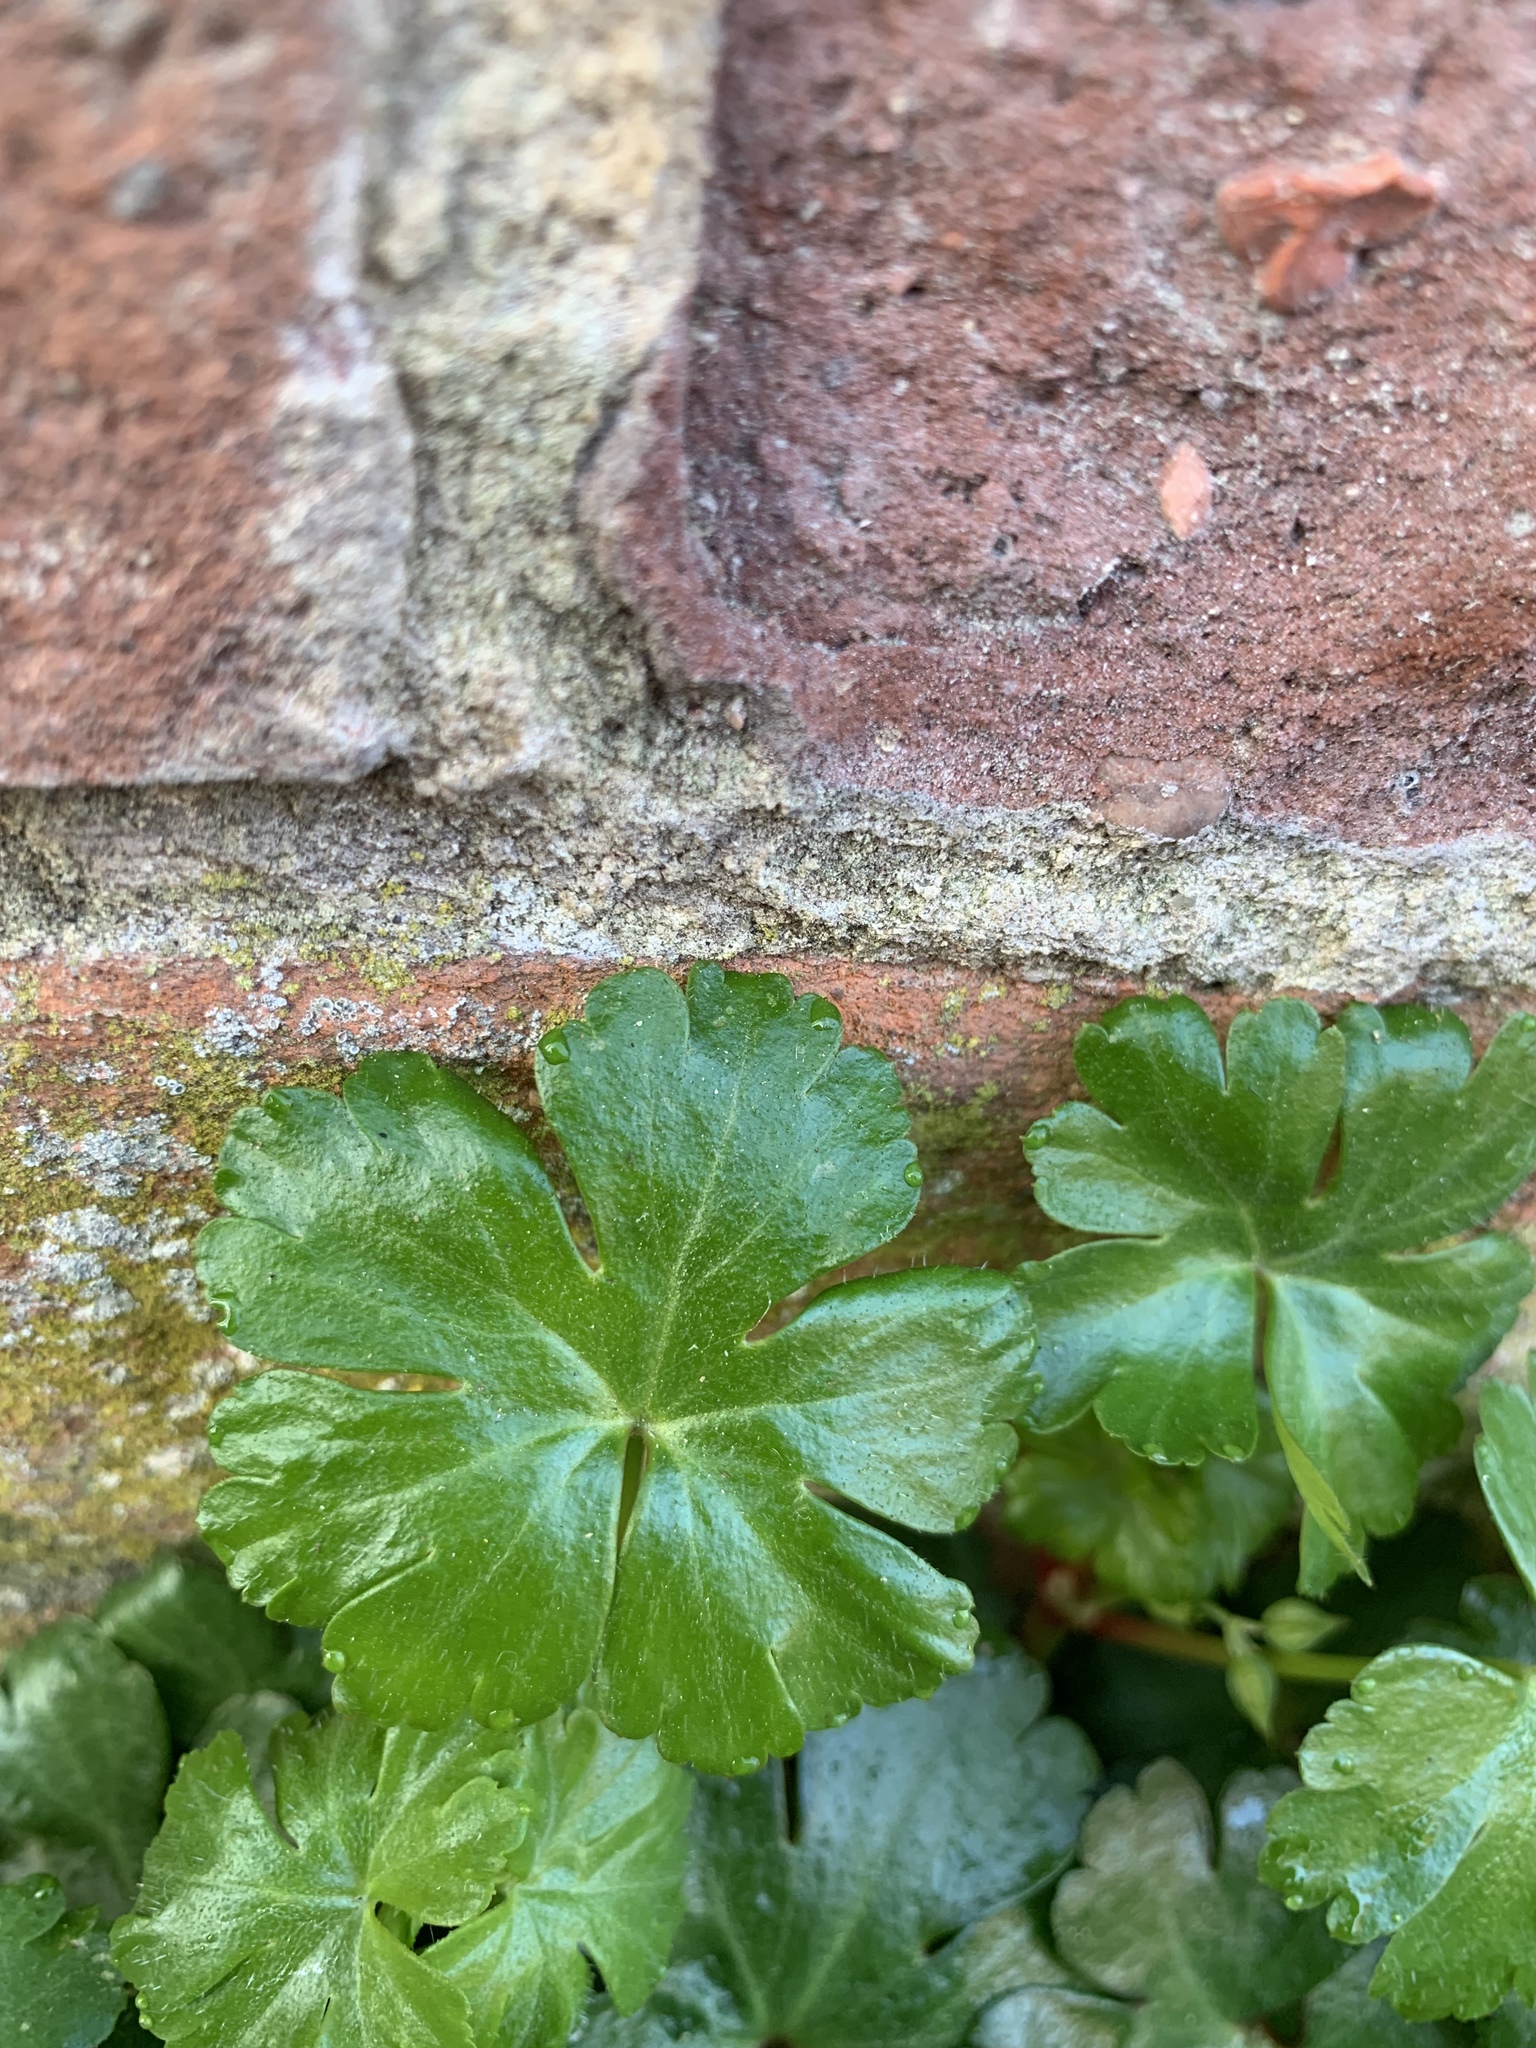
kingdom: Plantae
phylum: Tracheophyta
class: Magnoliopsida
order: Geraniales
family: Geraniaceae
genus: Geranium
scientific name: Geranium lucidum
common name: Shining crane's-bill
